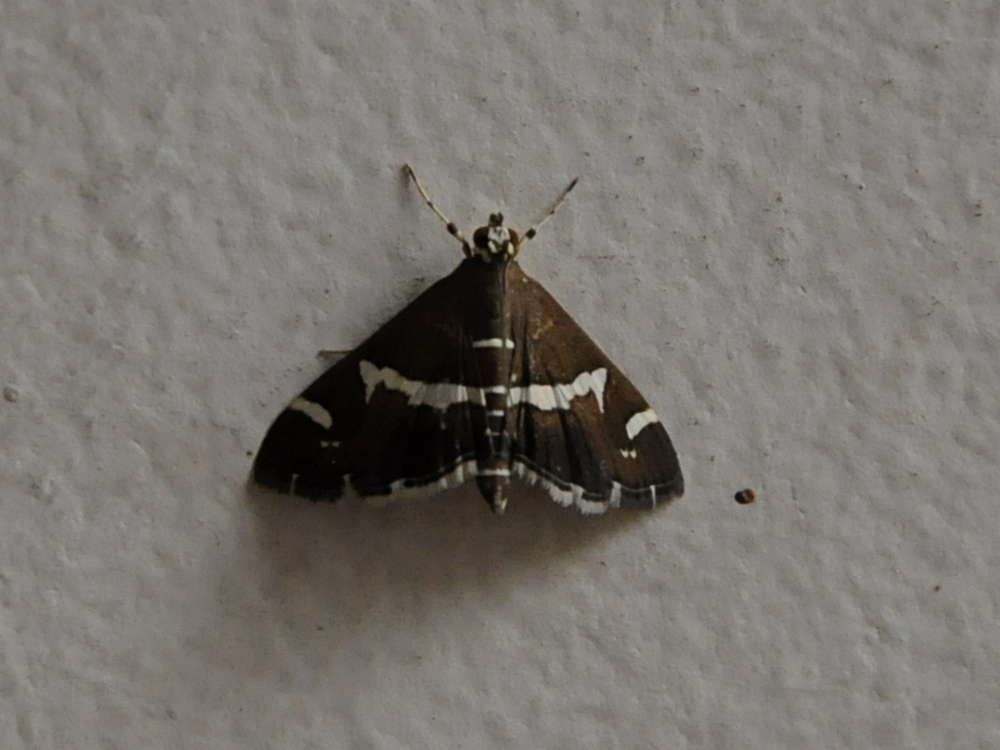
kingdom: Animalia
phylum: Arthropoda
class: Insecta
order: Lepidoptera
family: Crambidae
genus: Spoladea
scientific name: Spoladea recurvalis
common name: Beet webworm moth
